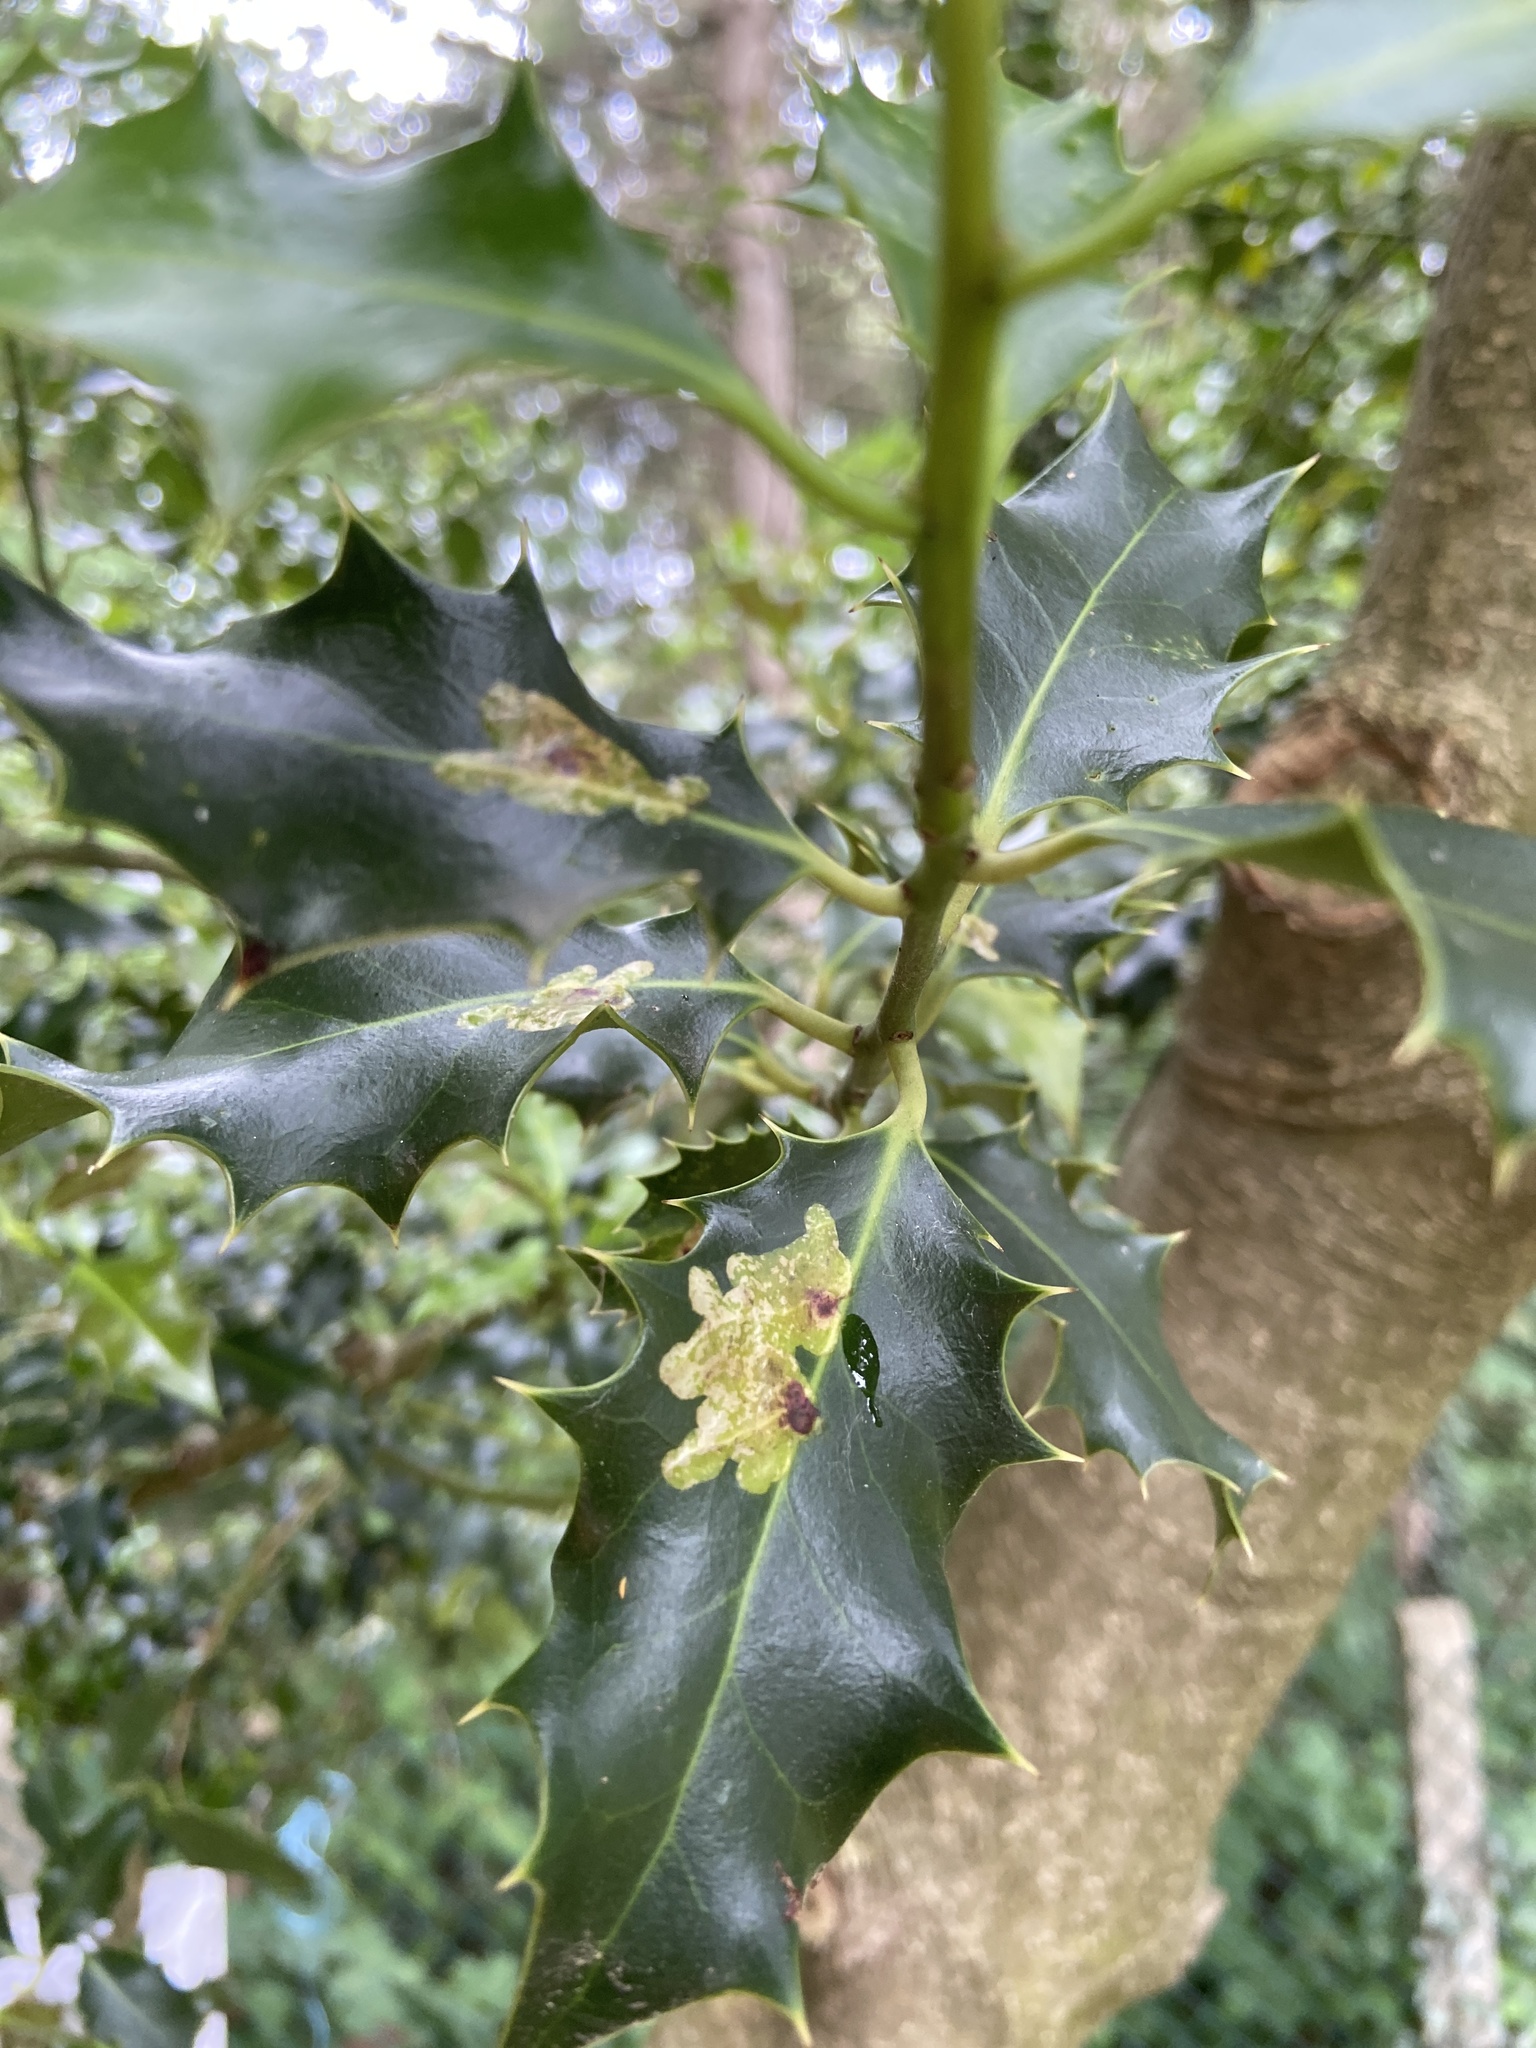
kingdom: Animalia
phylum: Arthropoda
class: Insecta
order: Diptera
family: Agromyzidae
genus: Phytomyza
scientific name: Phytomyza ilicis
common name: Holly leafminer
